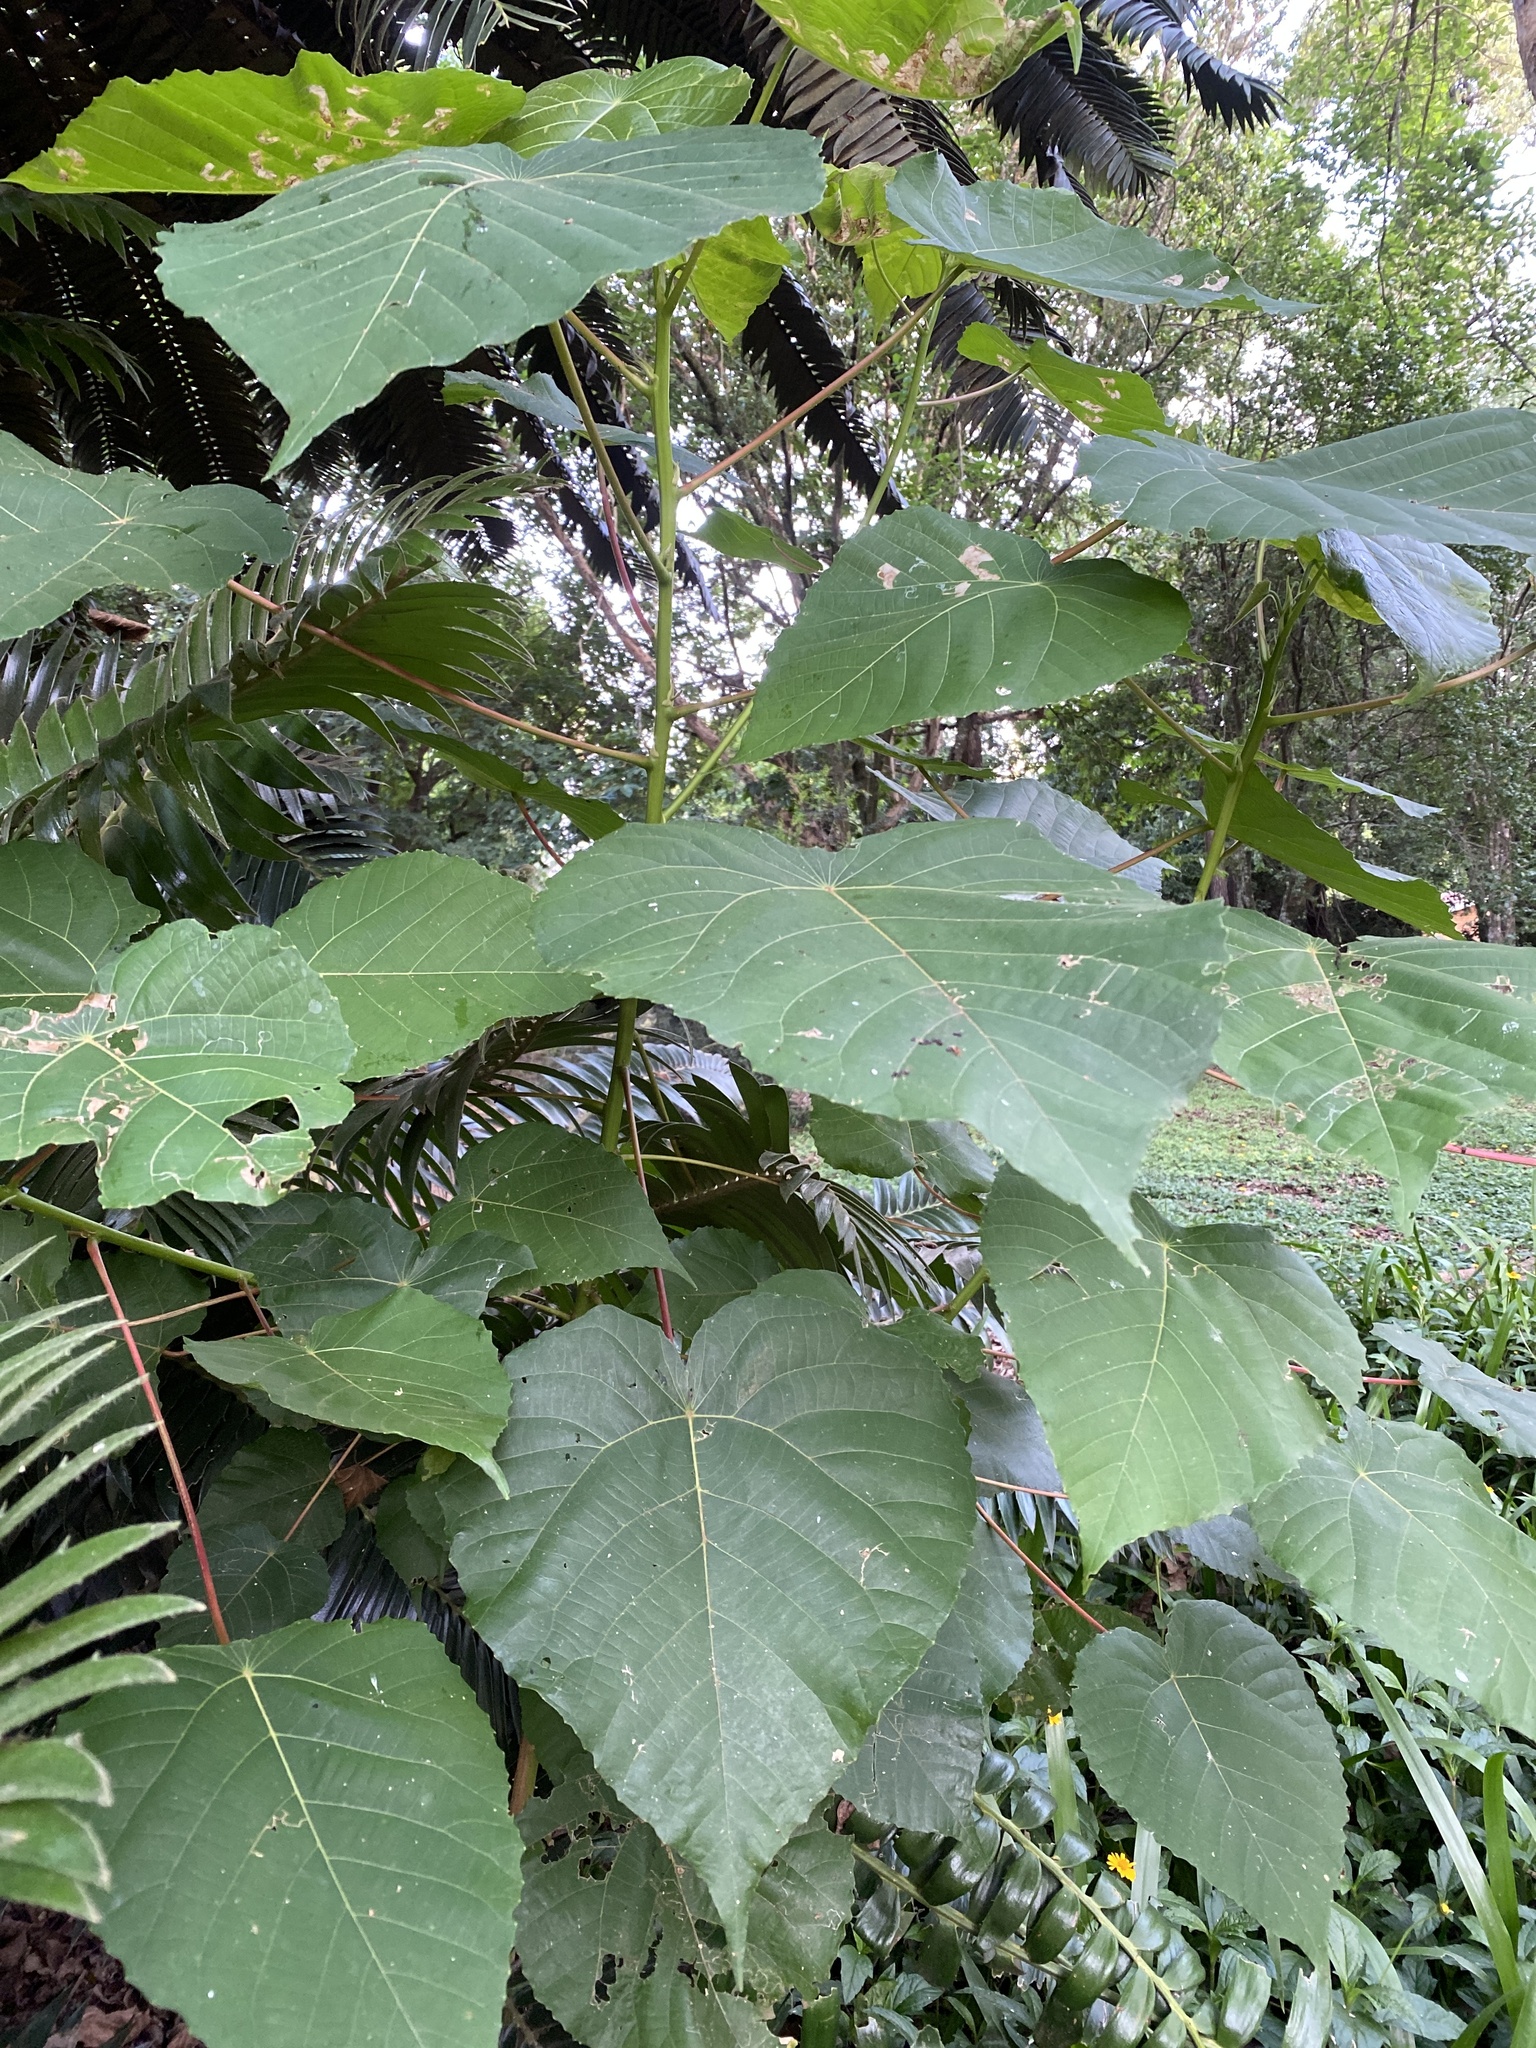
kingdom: Plantae
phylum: Tracheophyta
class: Magnoliopsida
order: Malpighiales
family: Euphorbiaceae
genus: Macaranga
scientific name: Macaranga capensis
